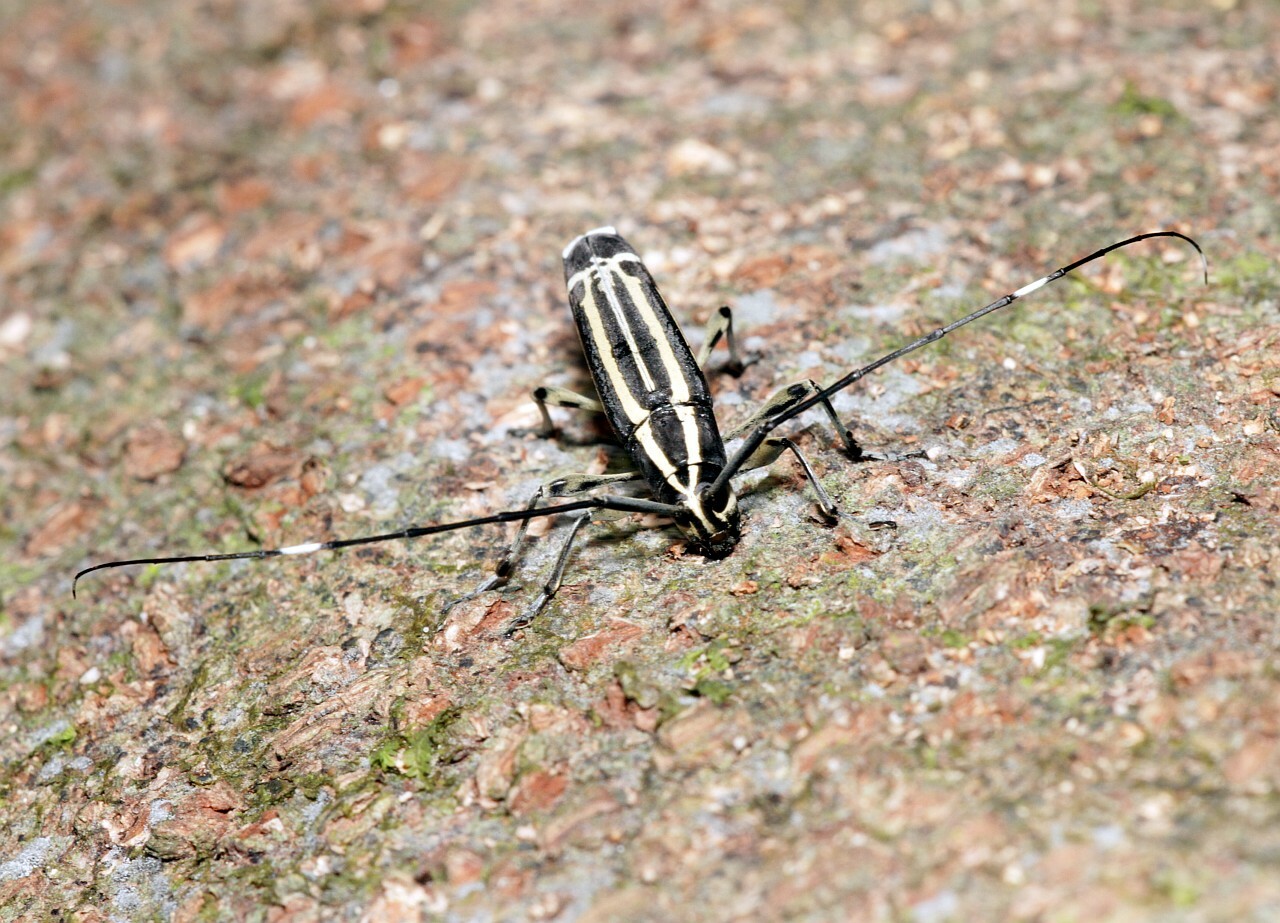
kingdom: Animalia
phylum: Arthropoda
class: Insecta
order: Coleoptera
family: Cerambycidae
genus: Colobothea
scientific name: Colobothea lunulata
